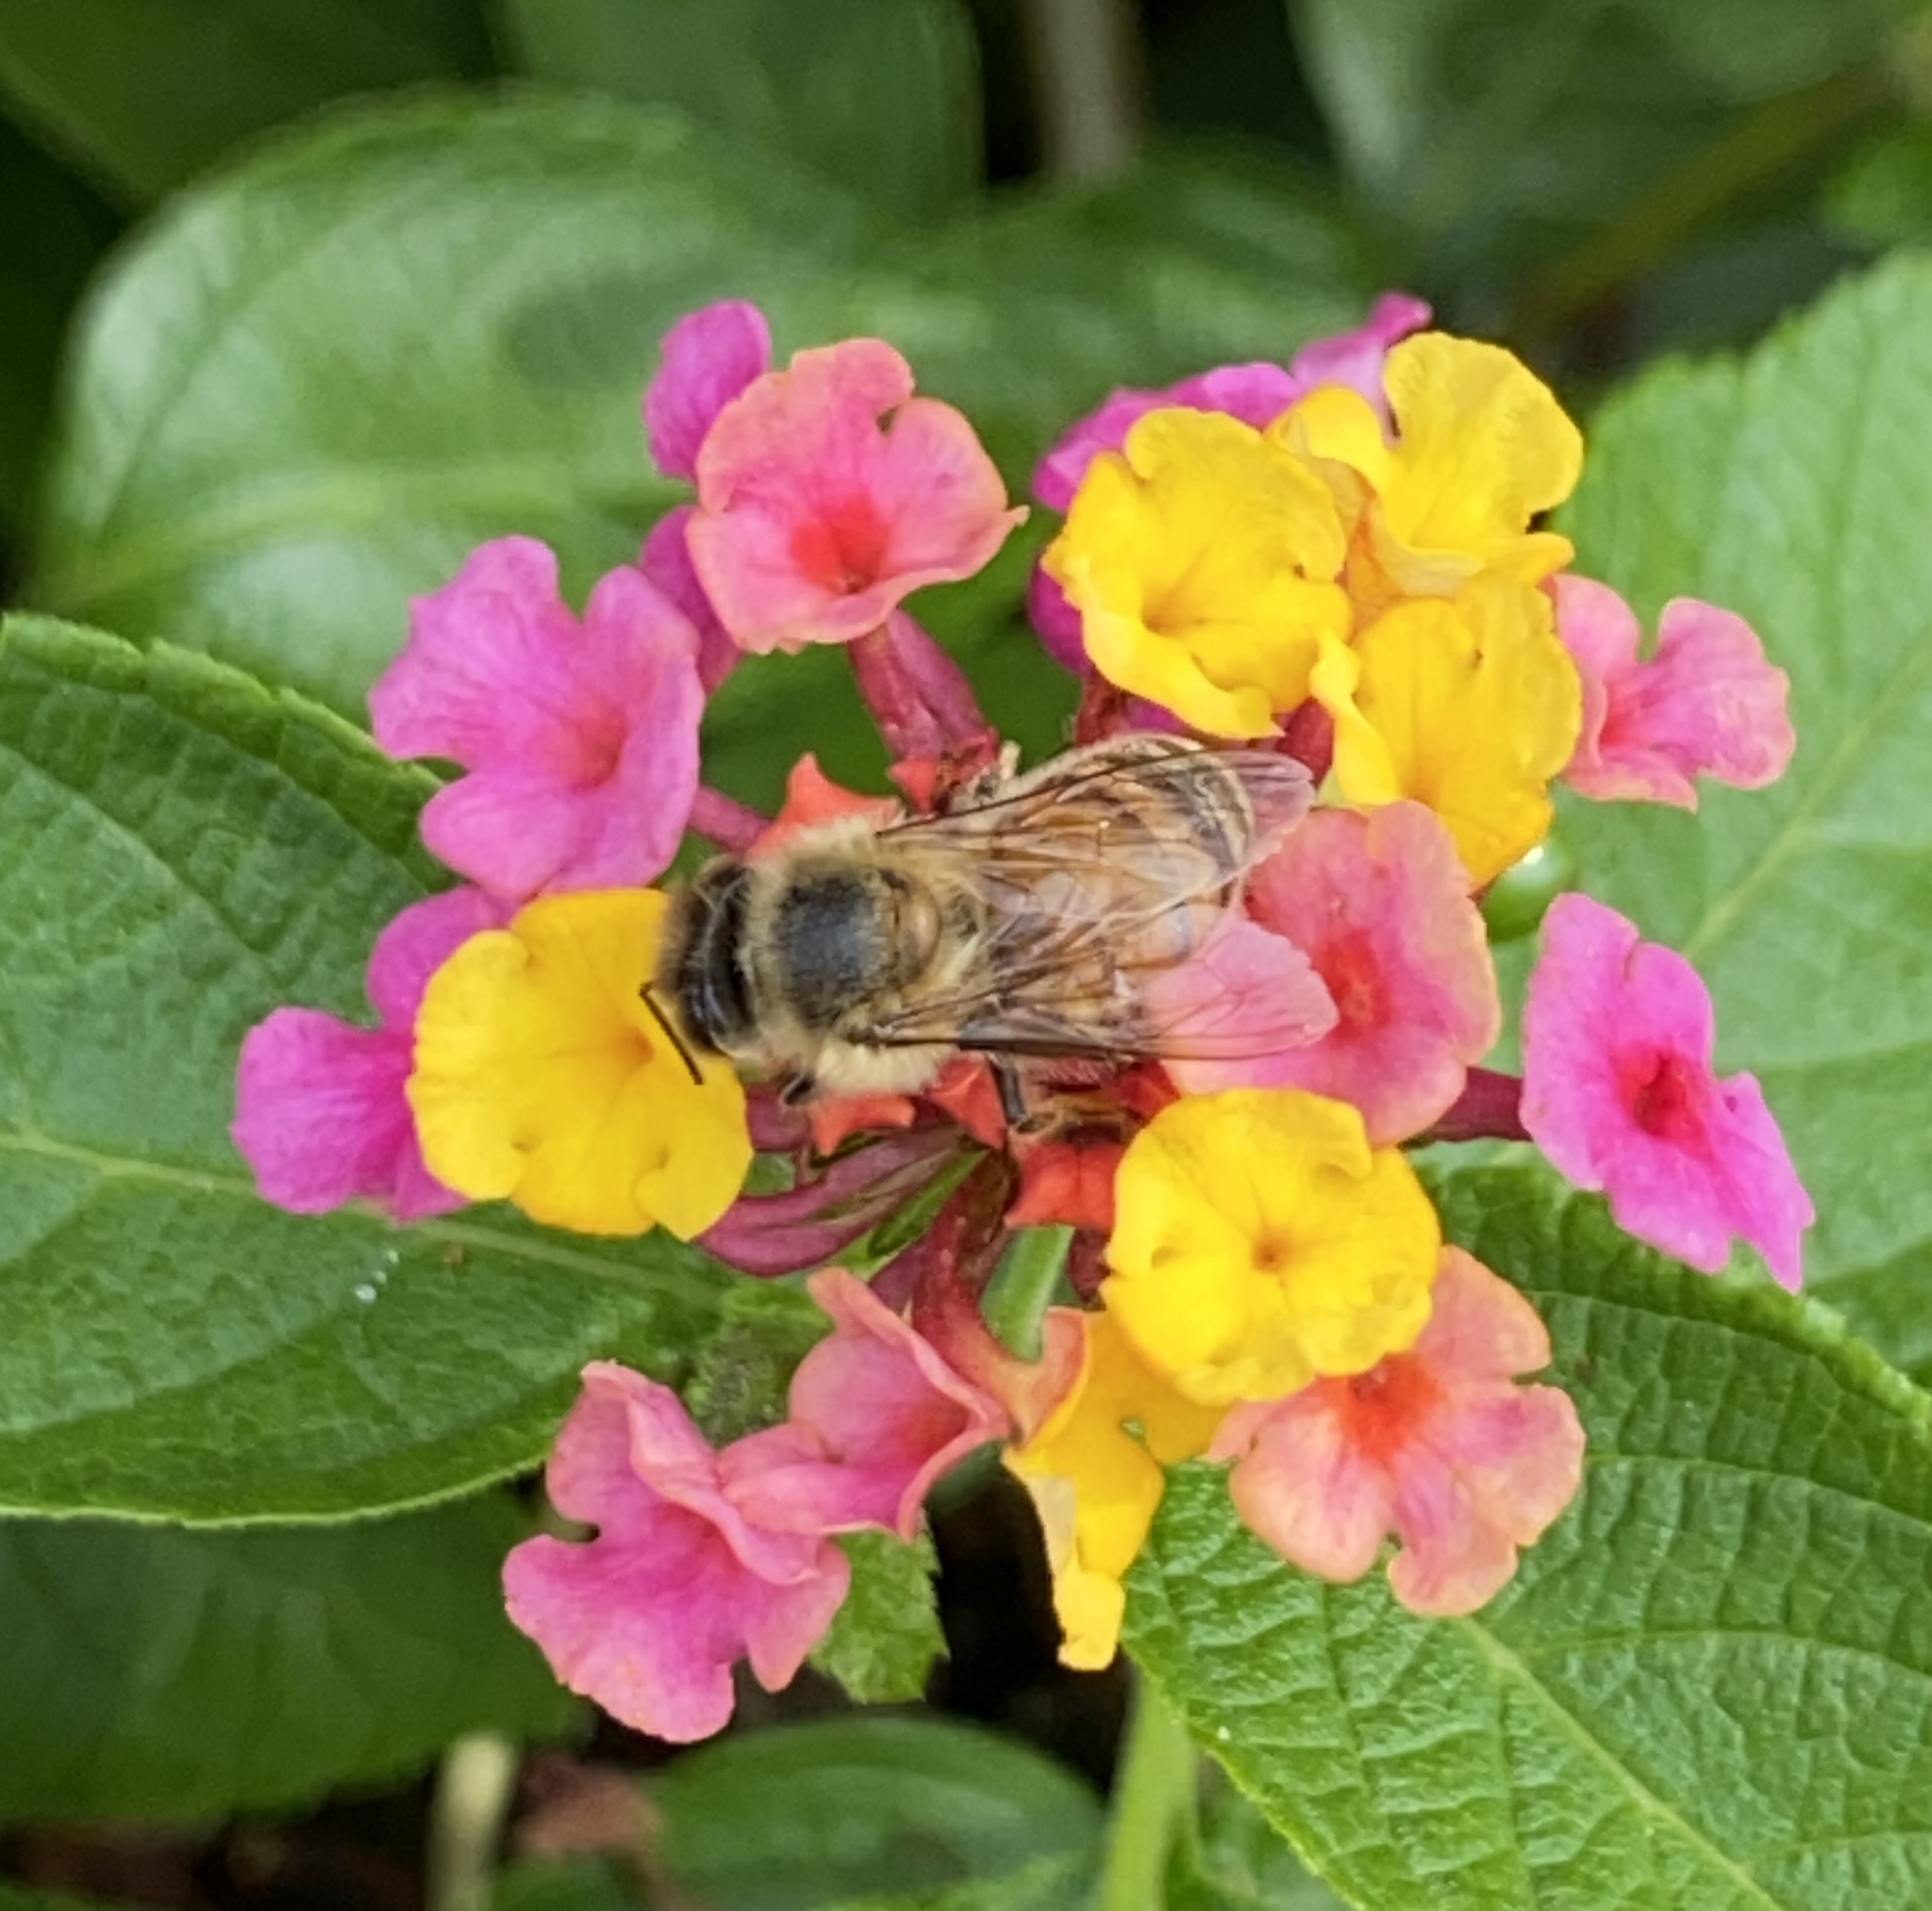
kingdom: Animalia
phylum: Arthropoda
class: Insecta
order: Hymenoptera
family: Apidae
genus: Apis
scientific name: Apis mellifera
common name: Honey bee
